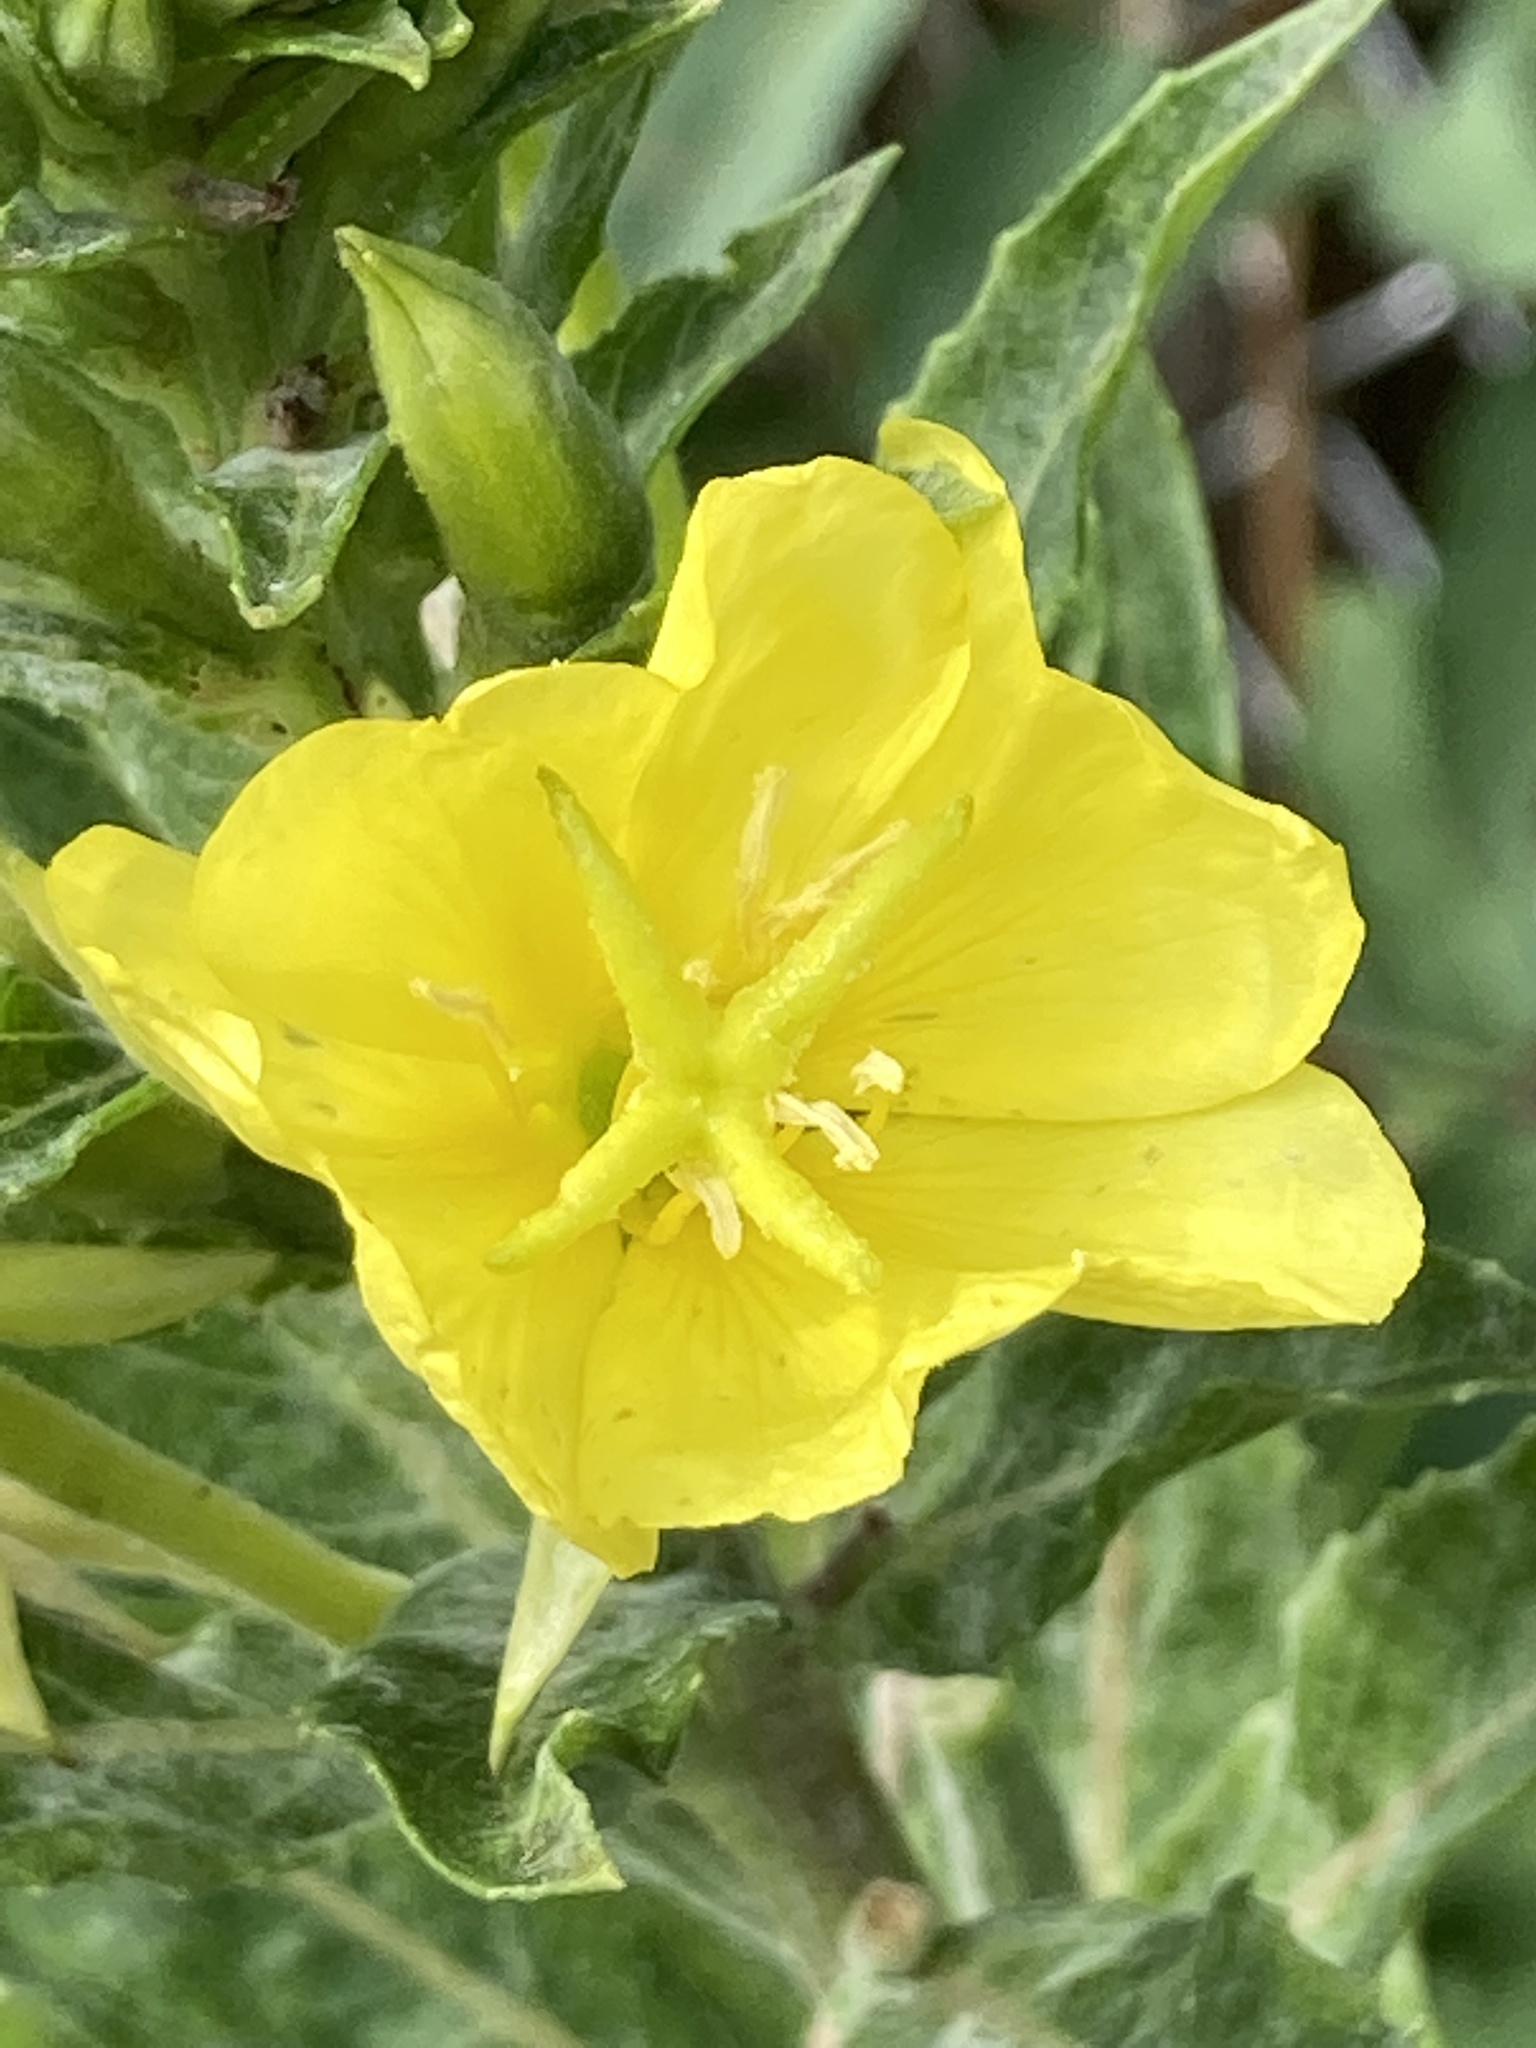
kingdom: Plantae
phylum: Tracheophyta
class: Magnoliopsida
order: Myrtales
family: Onagraceae
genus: Oenothera
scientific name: Oenothera biennis
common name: Common evening-primrose
